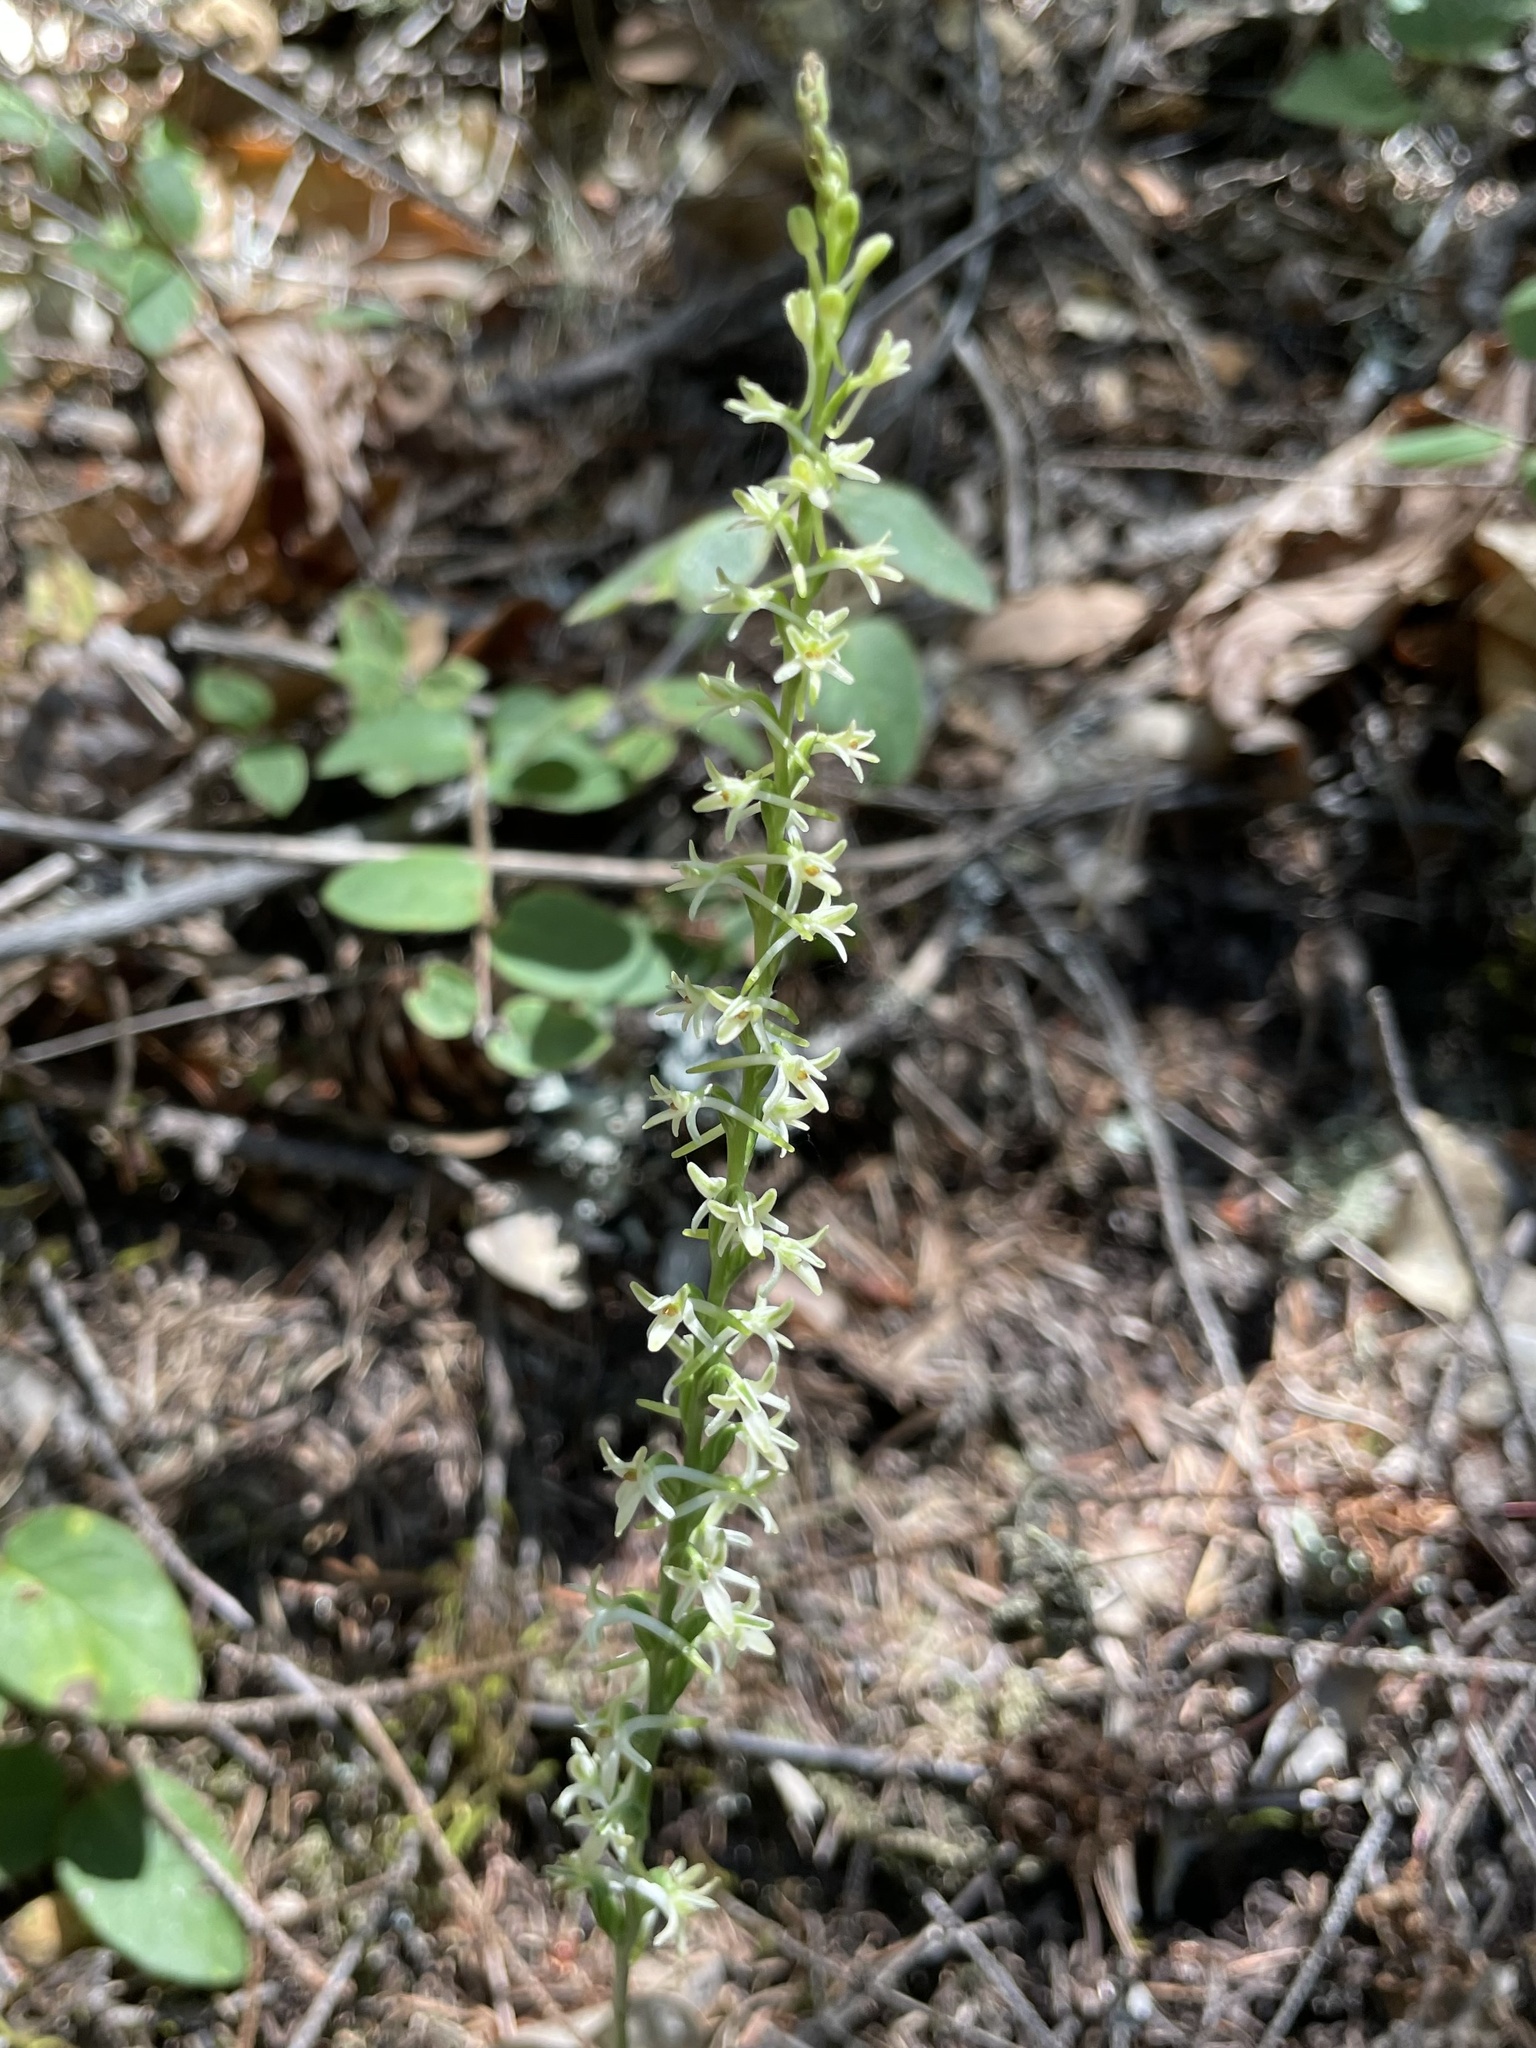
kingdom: Plantae
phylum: Tracheophyta
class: Liliopsida
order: Asparagales
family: Orchidaceae
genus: Platanthera
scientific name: Platanthera transversa
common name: Royal rein orchid
